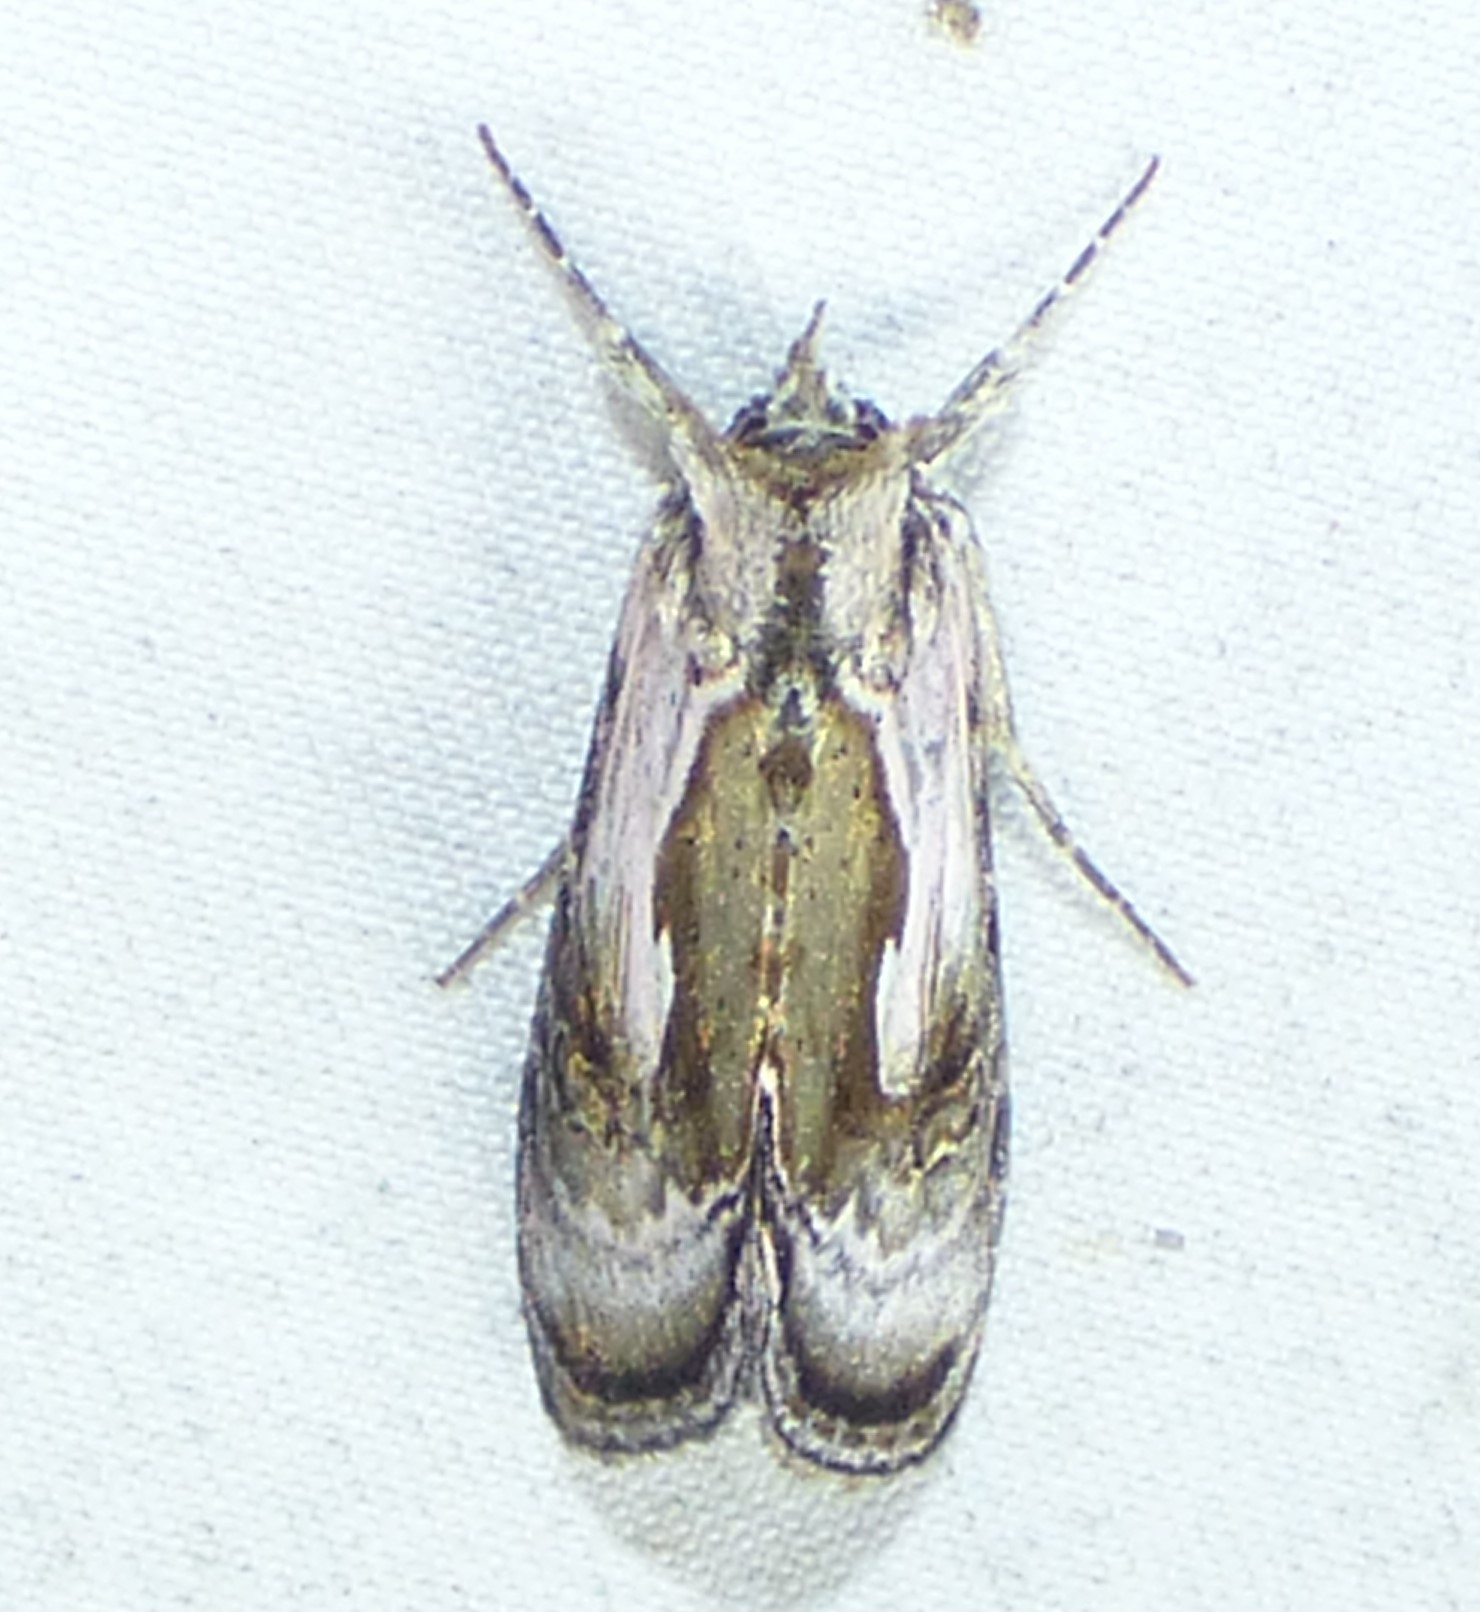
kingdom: Animalia
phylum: Arthropoda
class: Insecta
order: Lepidoptera
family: Noctuidae
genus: Chrysanympha
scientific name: Chrysanympha formosa
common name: Formosa looper moth
